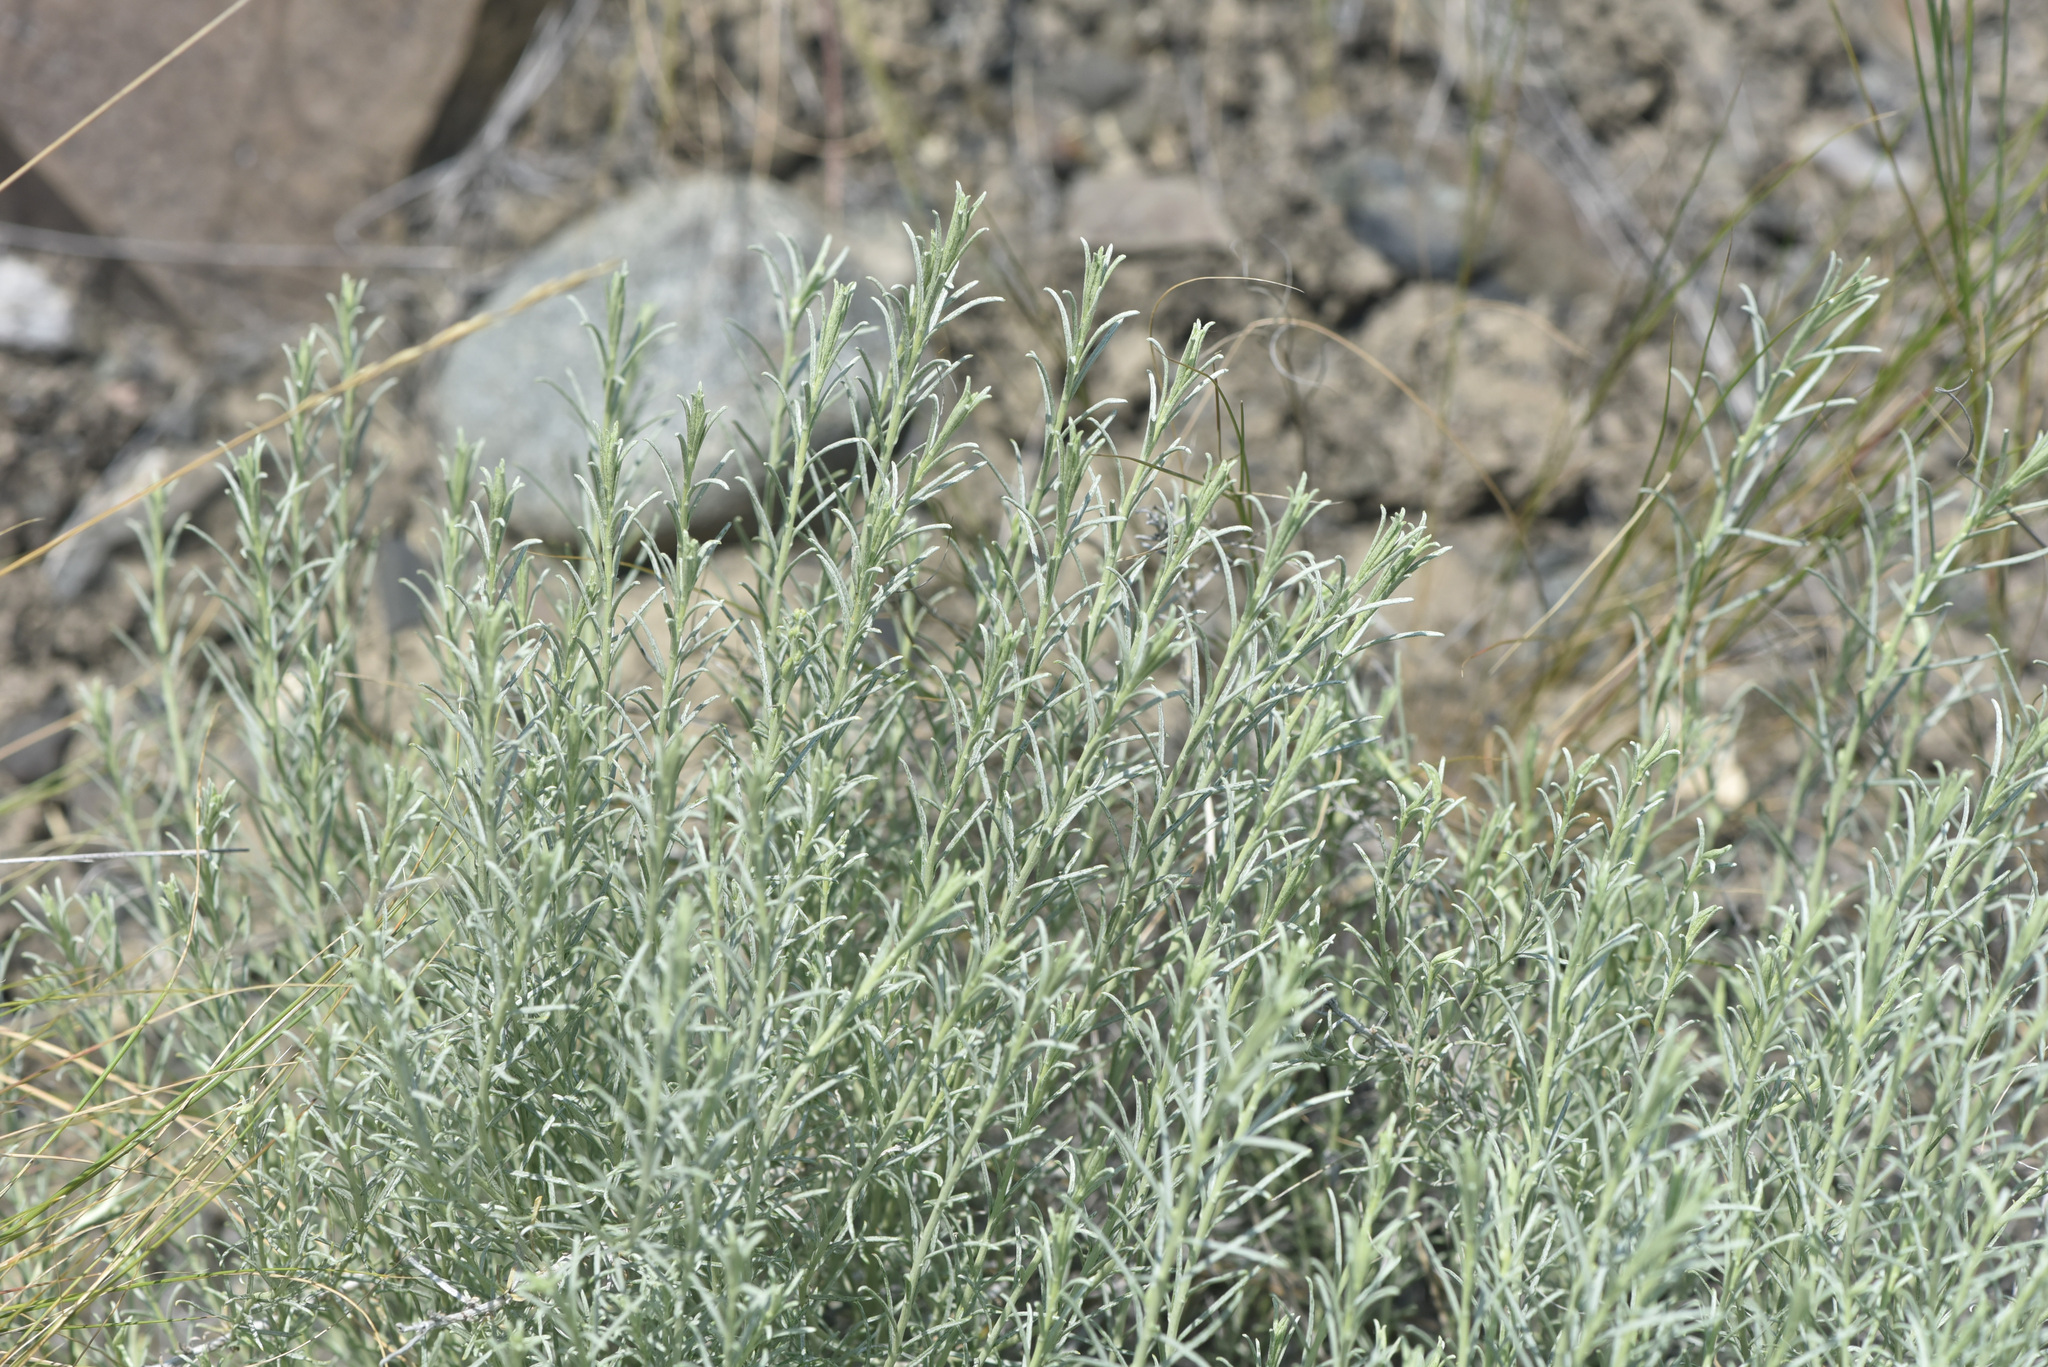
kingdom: Plantae
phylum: Tracheophyta
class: Magnoliopsida
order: Asterales
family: Asteraceae
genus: Ericameria
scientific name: Ericameria nauseosa
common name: Rubber rabbitbrush
